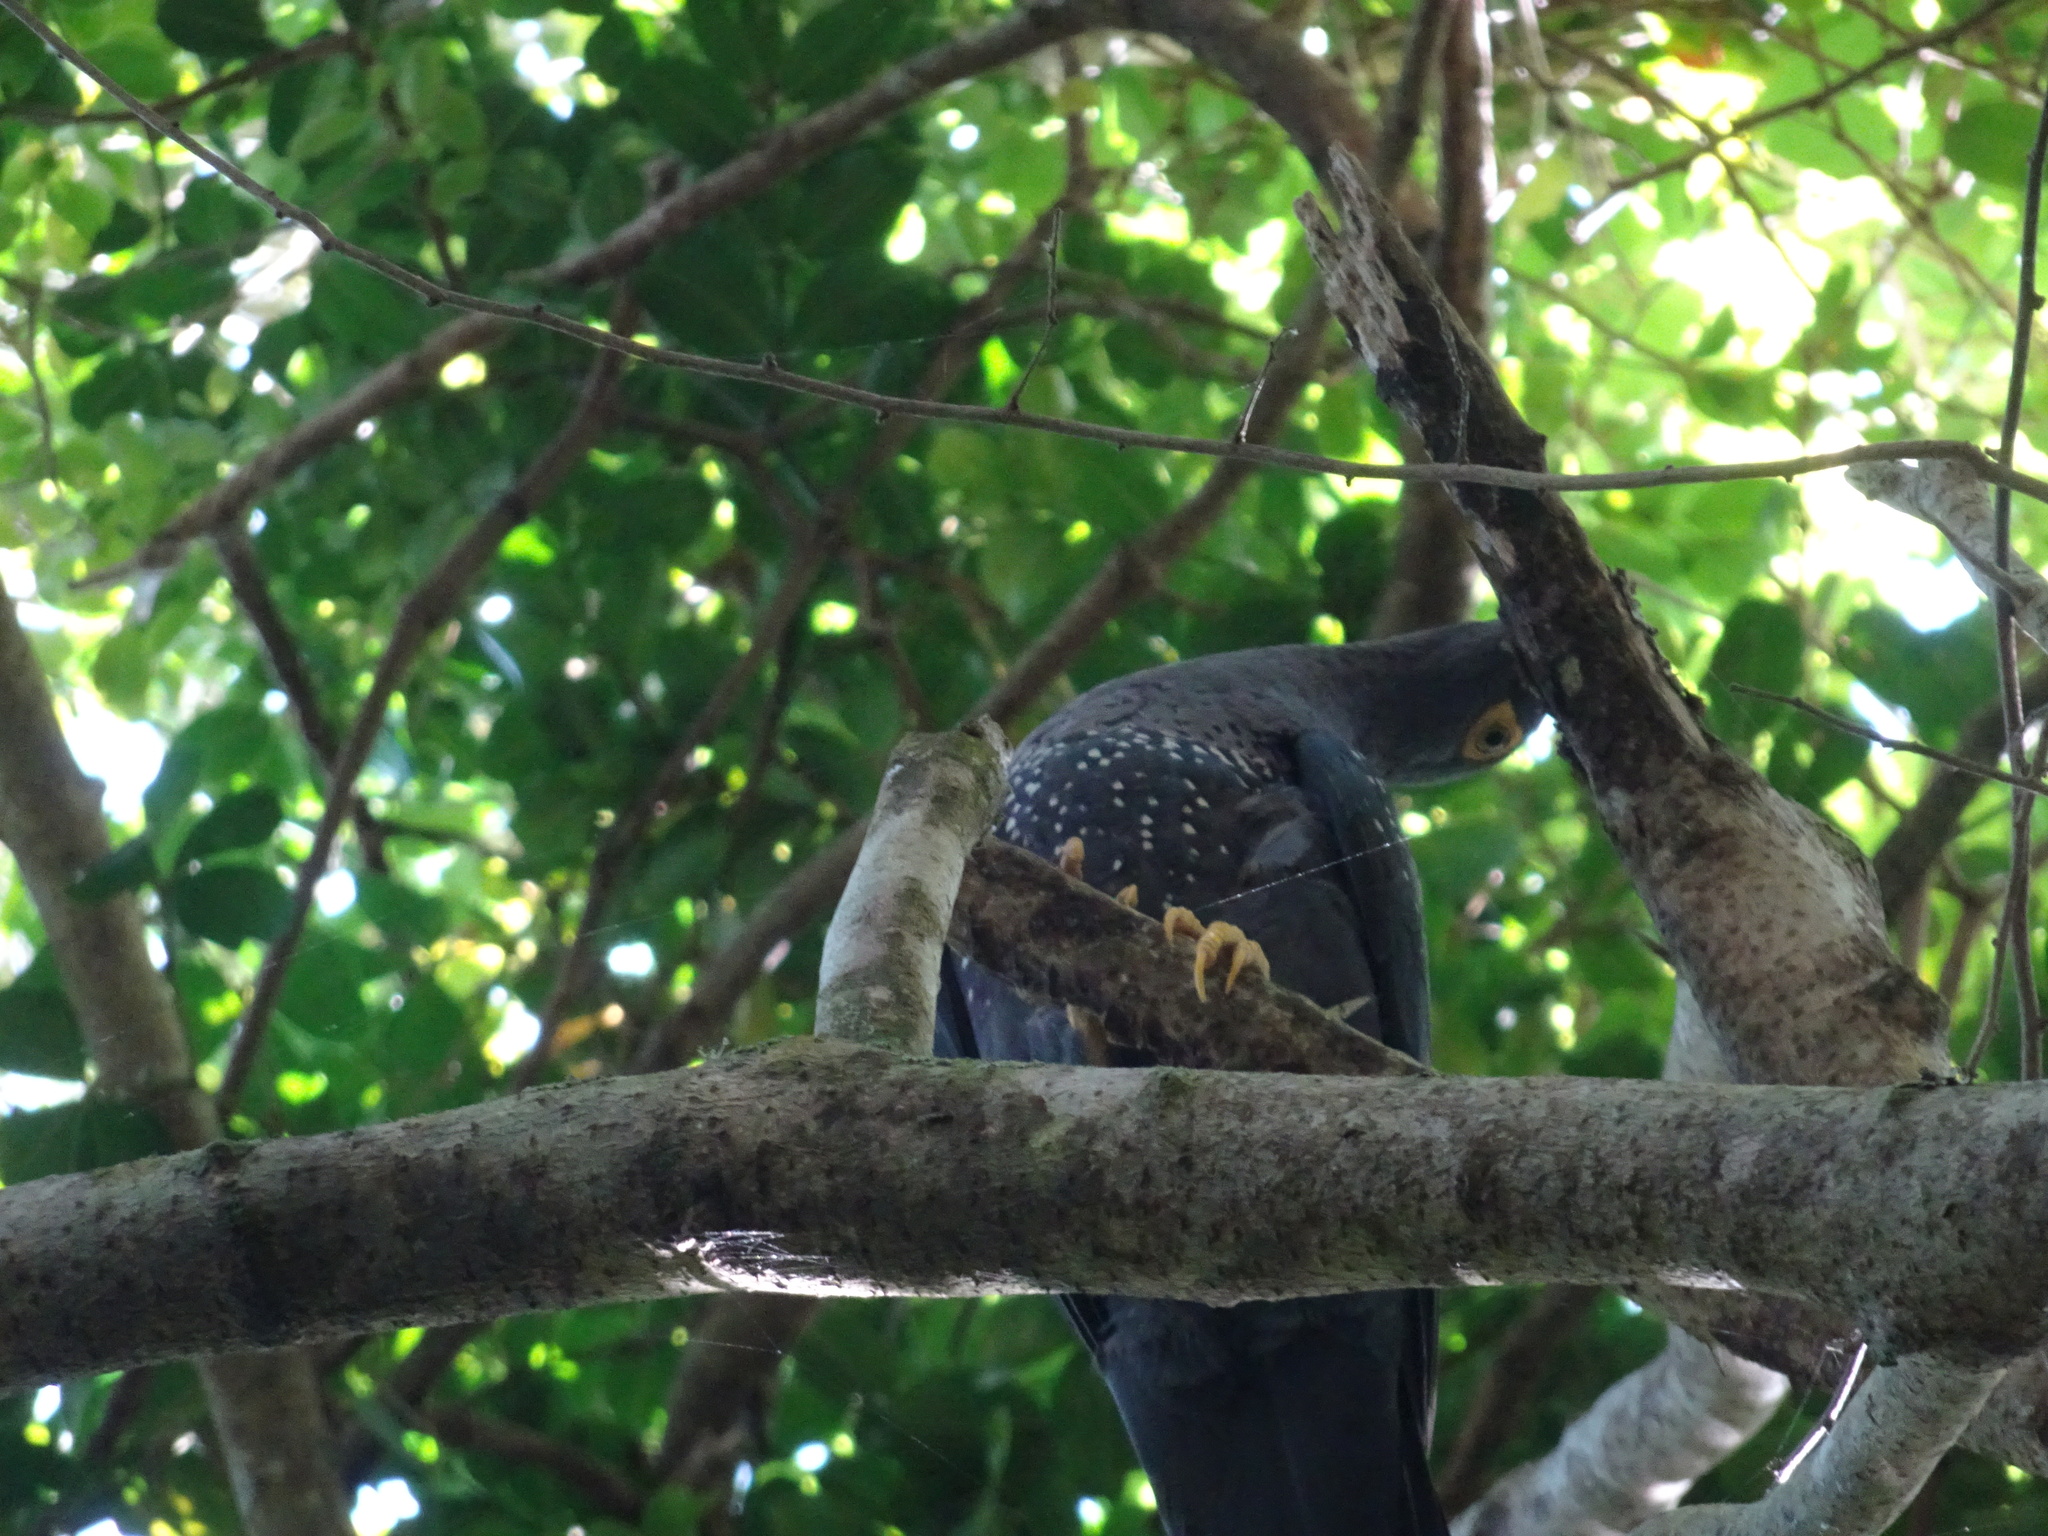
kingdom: Animalia
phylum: Chordata
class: Aves
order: Columbiformes
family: Columbidae
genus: Columba
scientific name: Columba arquatrix
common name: African olive pigeon
